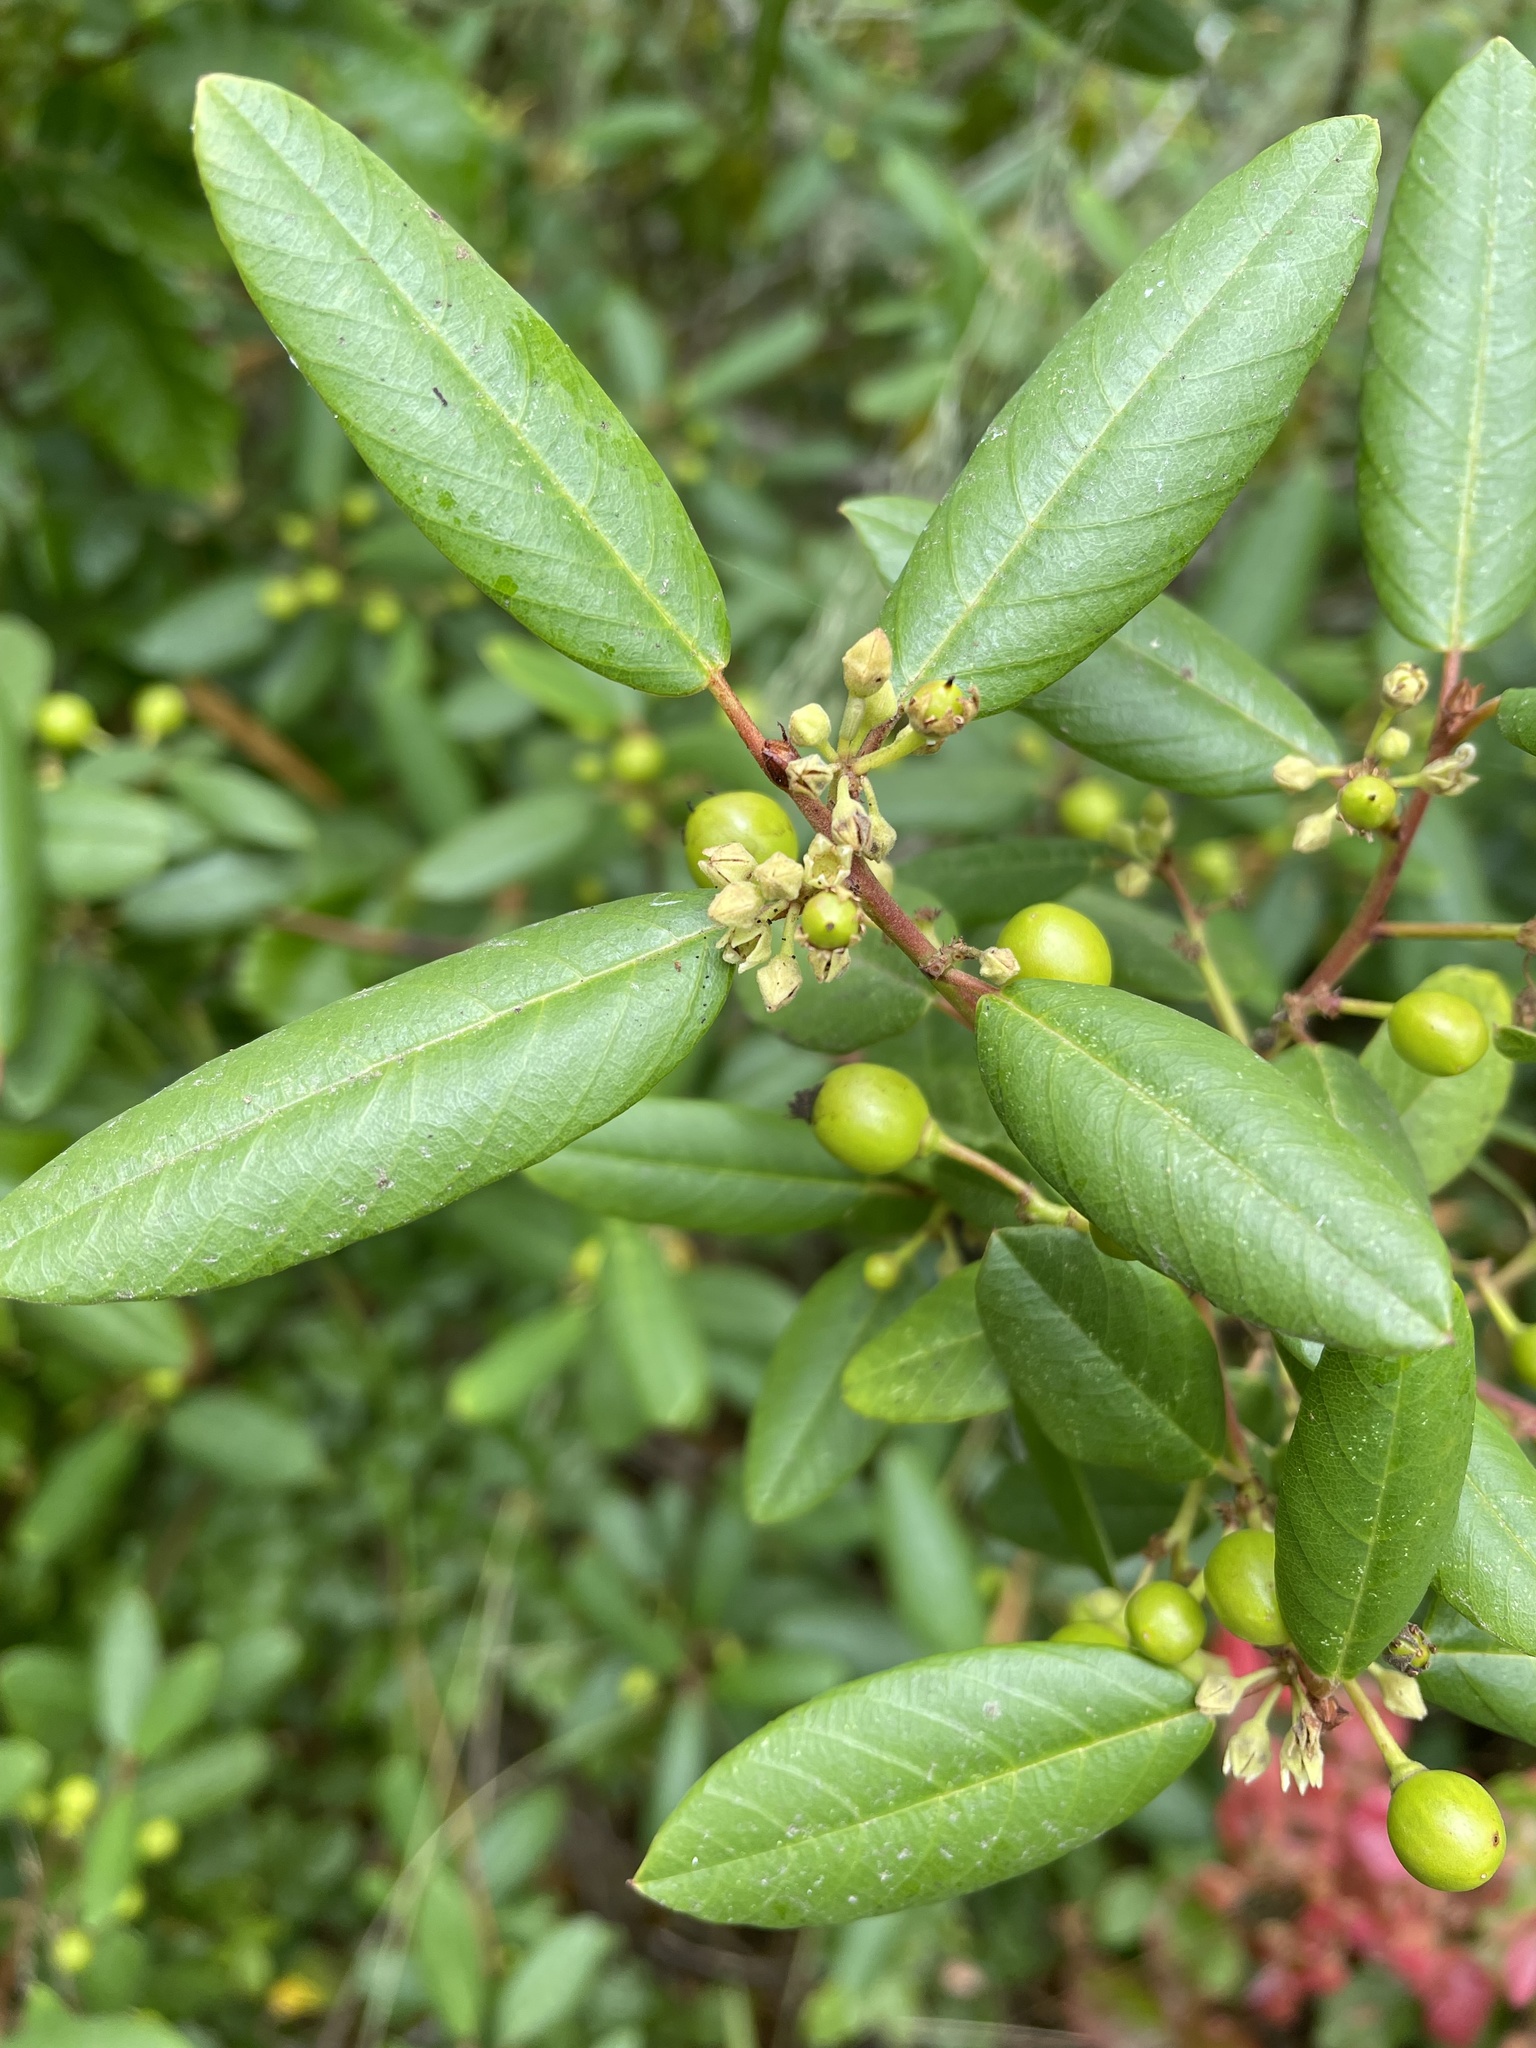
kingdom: Plantae
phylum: Tracheophyta
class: Magnoliopsida
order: Rosales
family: Rhamnaceae
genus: Frangula
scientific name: Frangula californica
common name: California buckthorn
